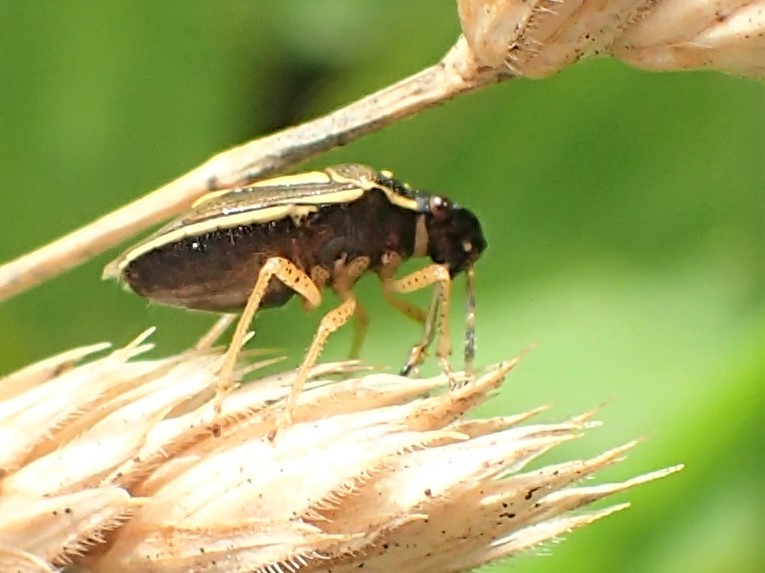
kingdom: Animalia
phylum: Arthropoda
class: Insecta
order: Hemiptera
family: Pentatomidae
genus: Mormidea
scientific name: Mormidea lugens
